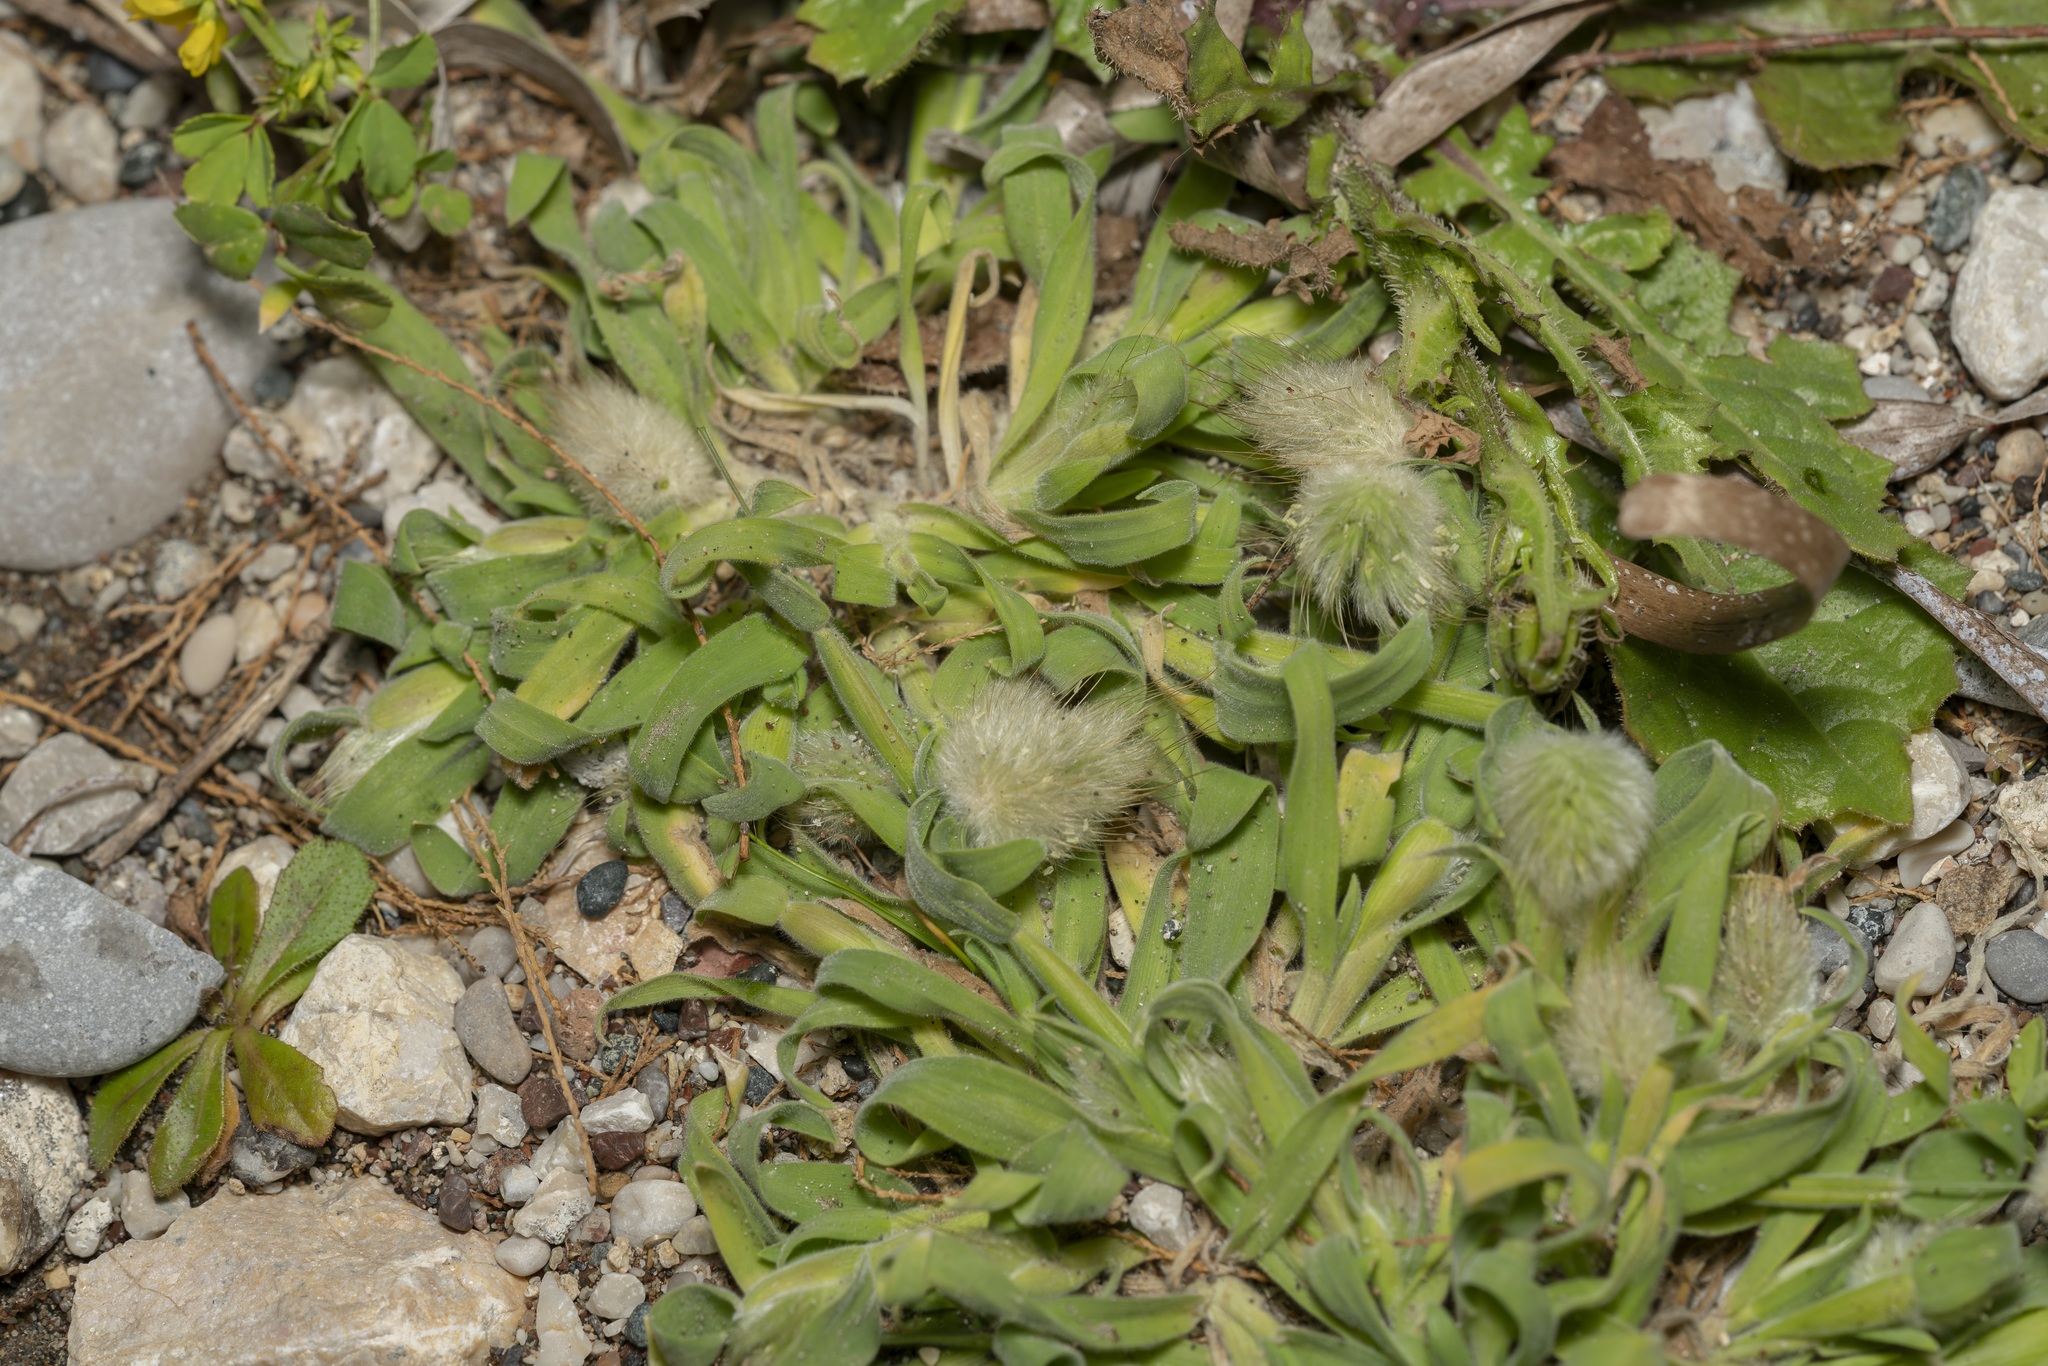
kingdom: Plantae
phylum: Tracheophyta
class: Liliopsida
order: Poales
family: Poaceae
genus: Lagurus
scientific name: Lagurus ovatus
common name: Hare's-tail
